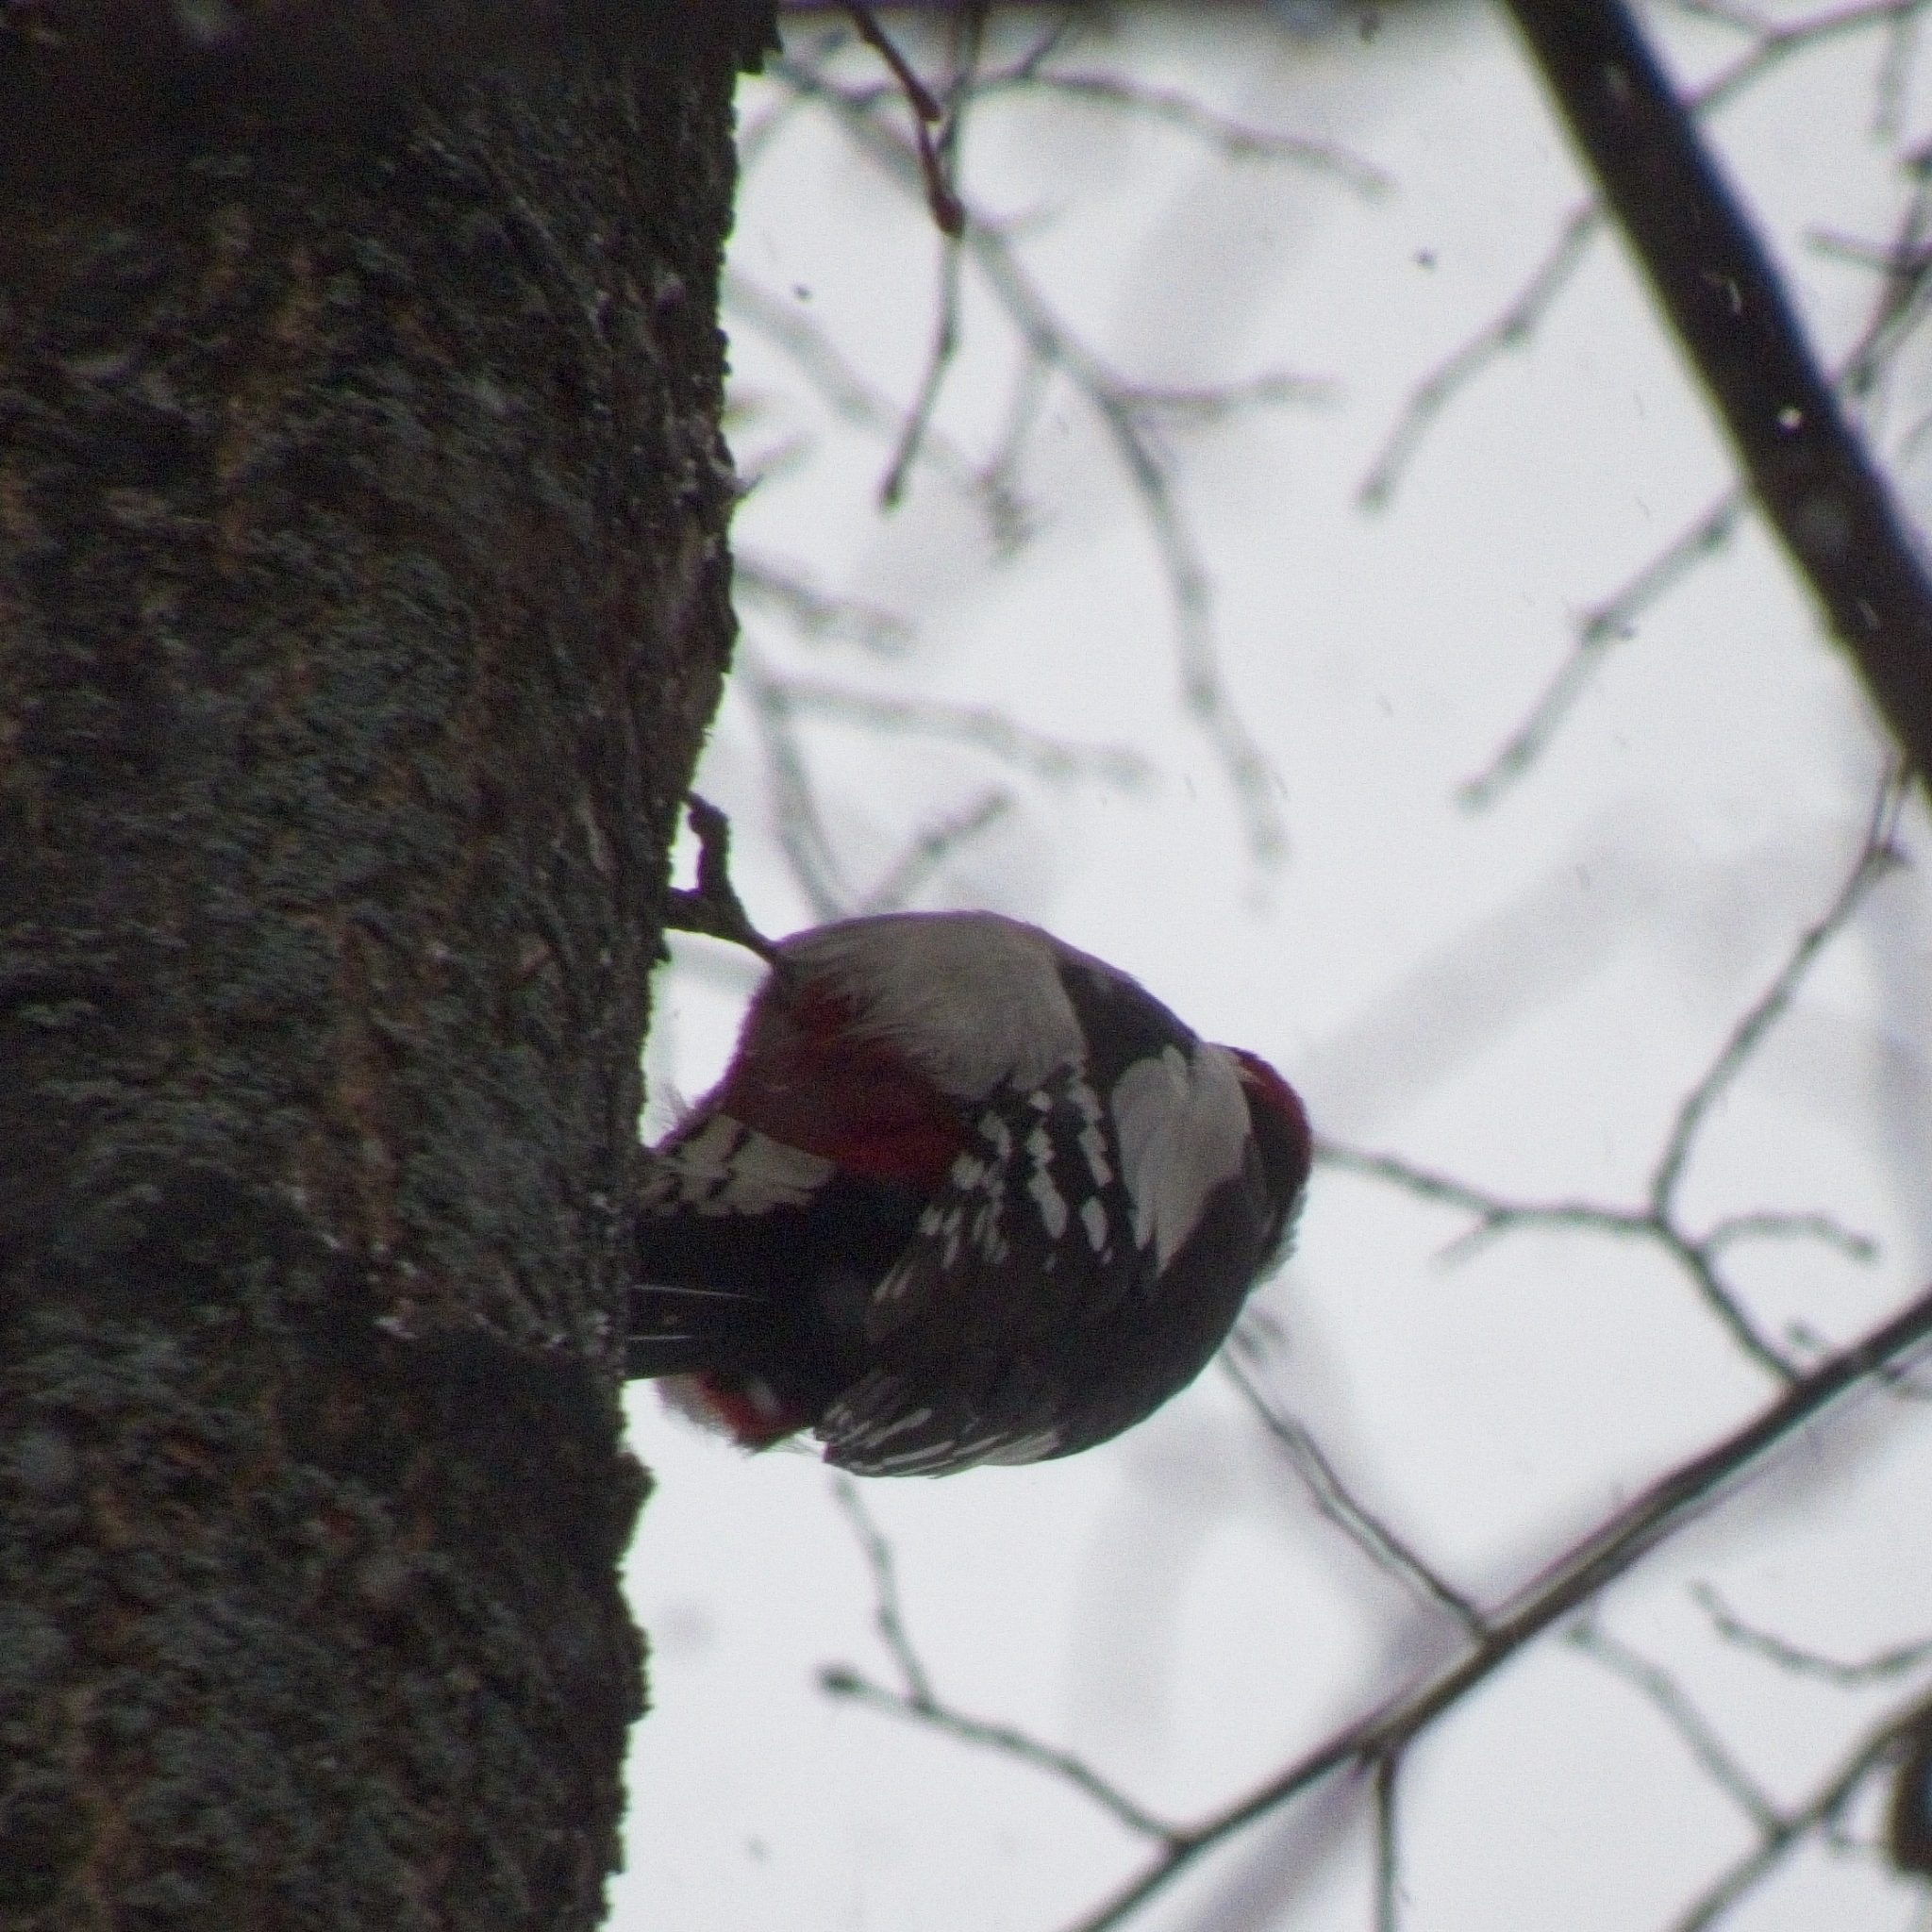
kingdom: Animalia
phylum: Chordata
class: Aves
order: Piciformes
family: Picidae
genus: Dendrocopos
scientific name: Dendrocopos major
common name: Great spotted woodpecker
